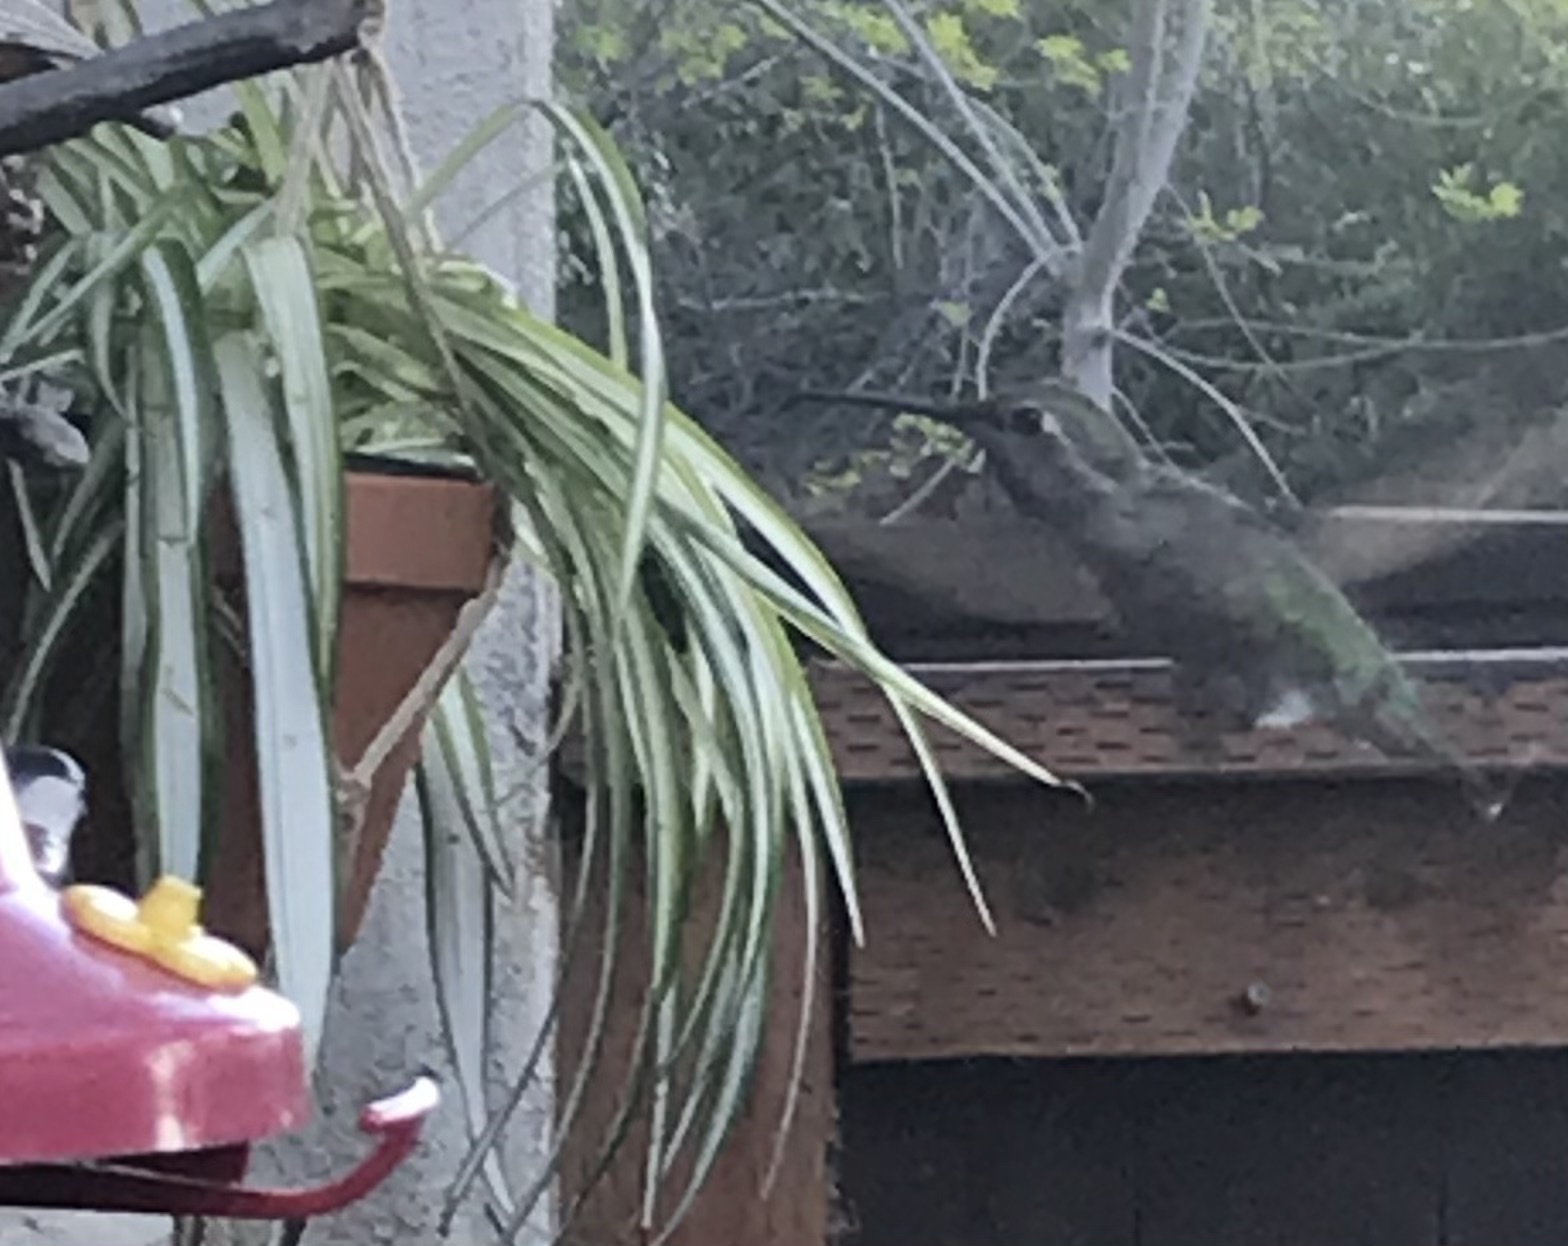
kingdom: Animalia
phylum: Chordata
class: Aves
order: Apodiformes
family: Trochilidae
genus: Calypte
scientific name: Calypte anna
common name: Anna's hummingbird
